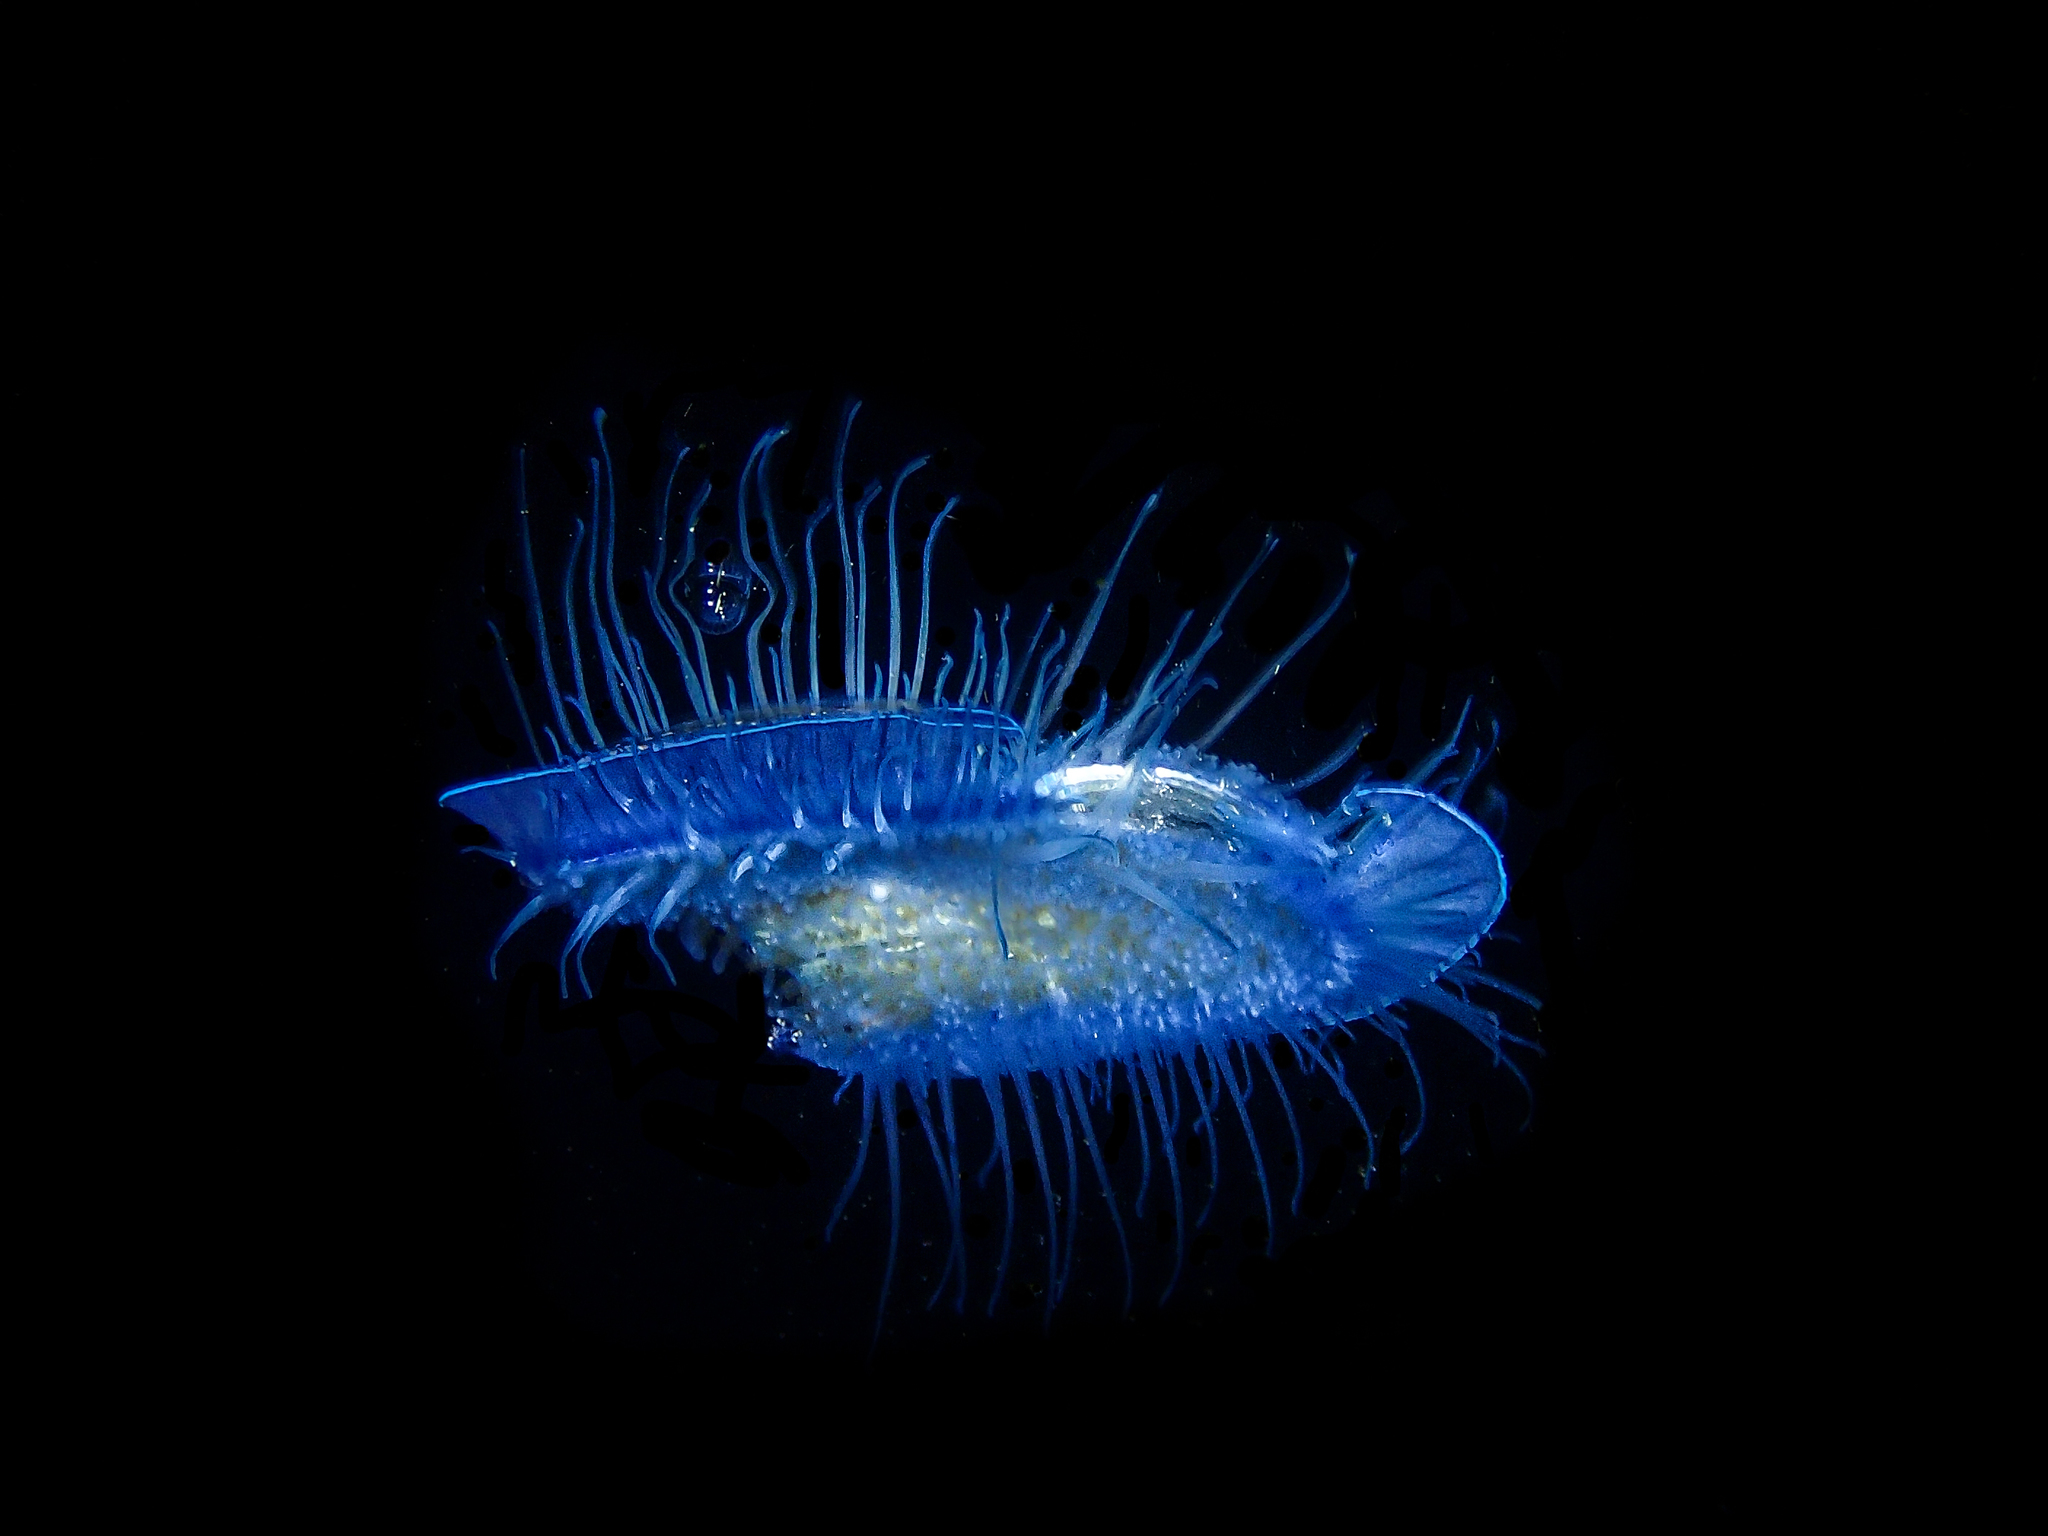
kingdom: Animalia
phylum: Cnidaria
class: Hydrozoa
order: Anthoathecata
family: Porpitidae
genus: Velella
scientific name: Velella velella
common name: By-the-wind-sailor
